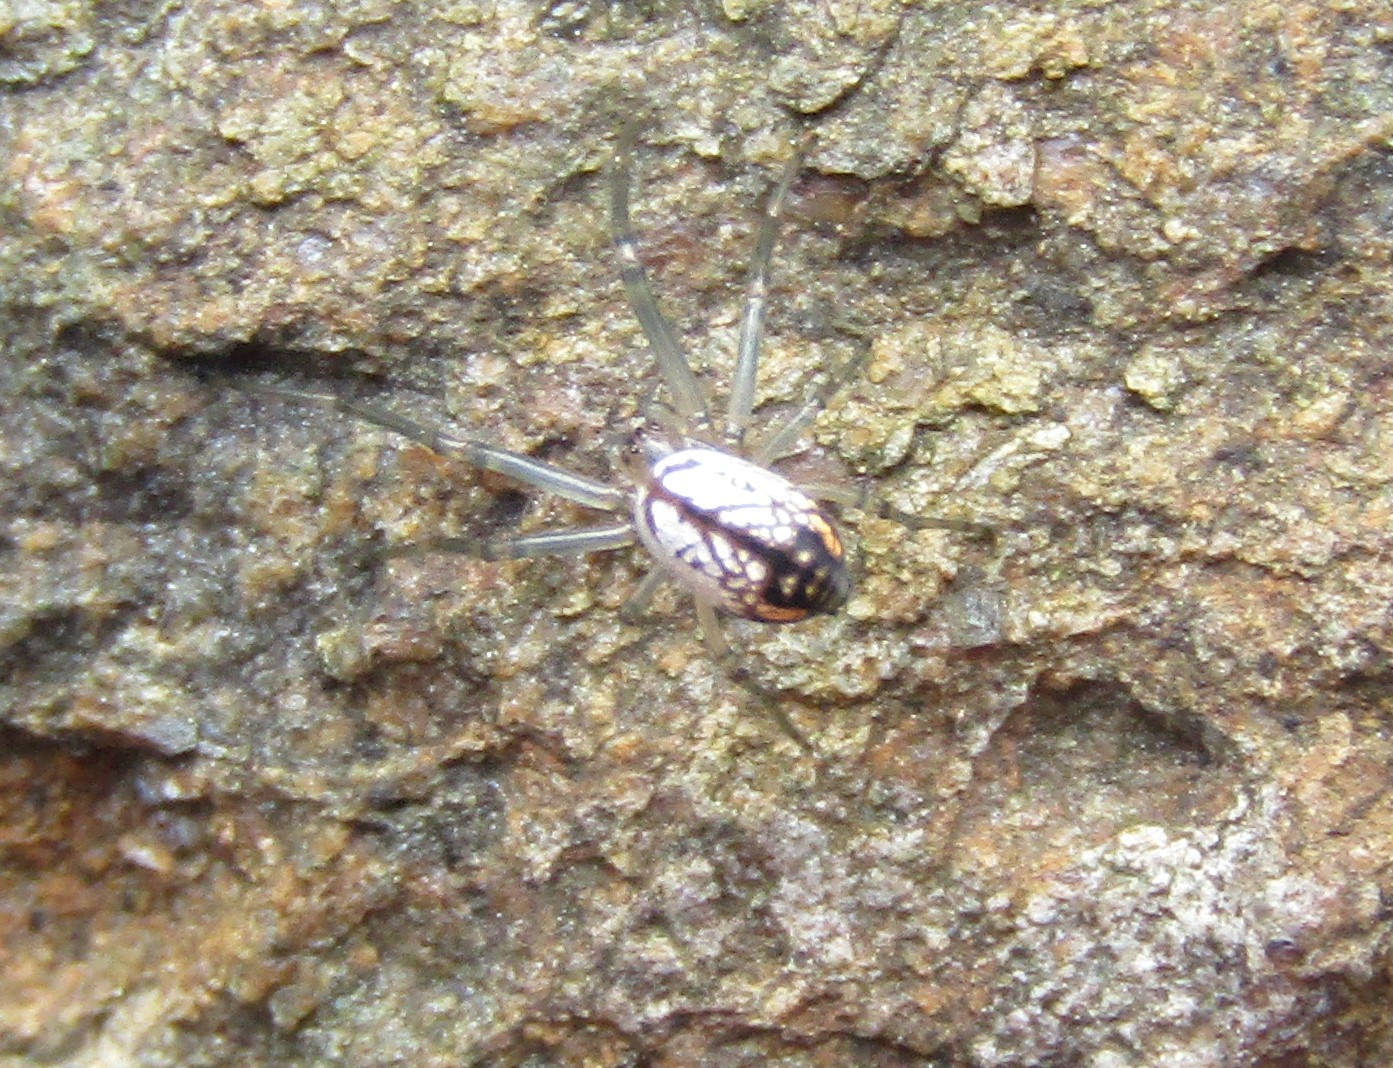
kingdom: Animalia
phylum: Arthropoda
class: Arachnida
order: Araneae
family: Tetragnathidae
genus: Leucauge
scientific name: Leucauge
